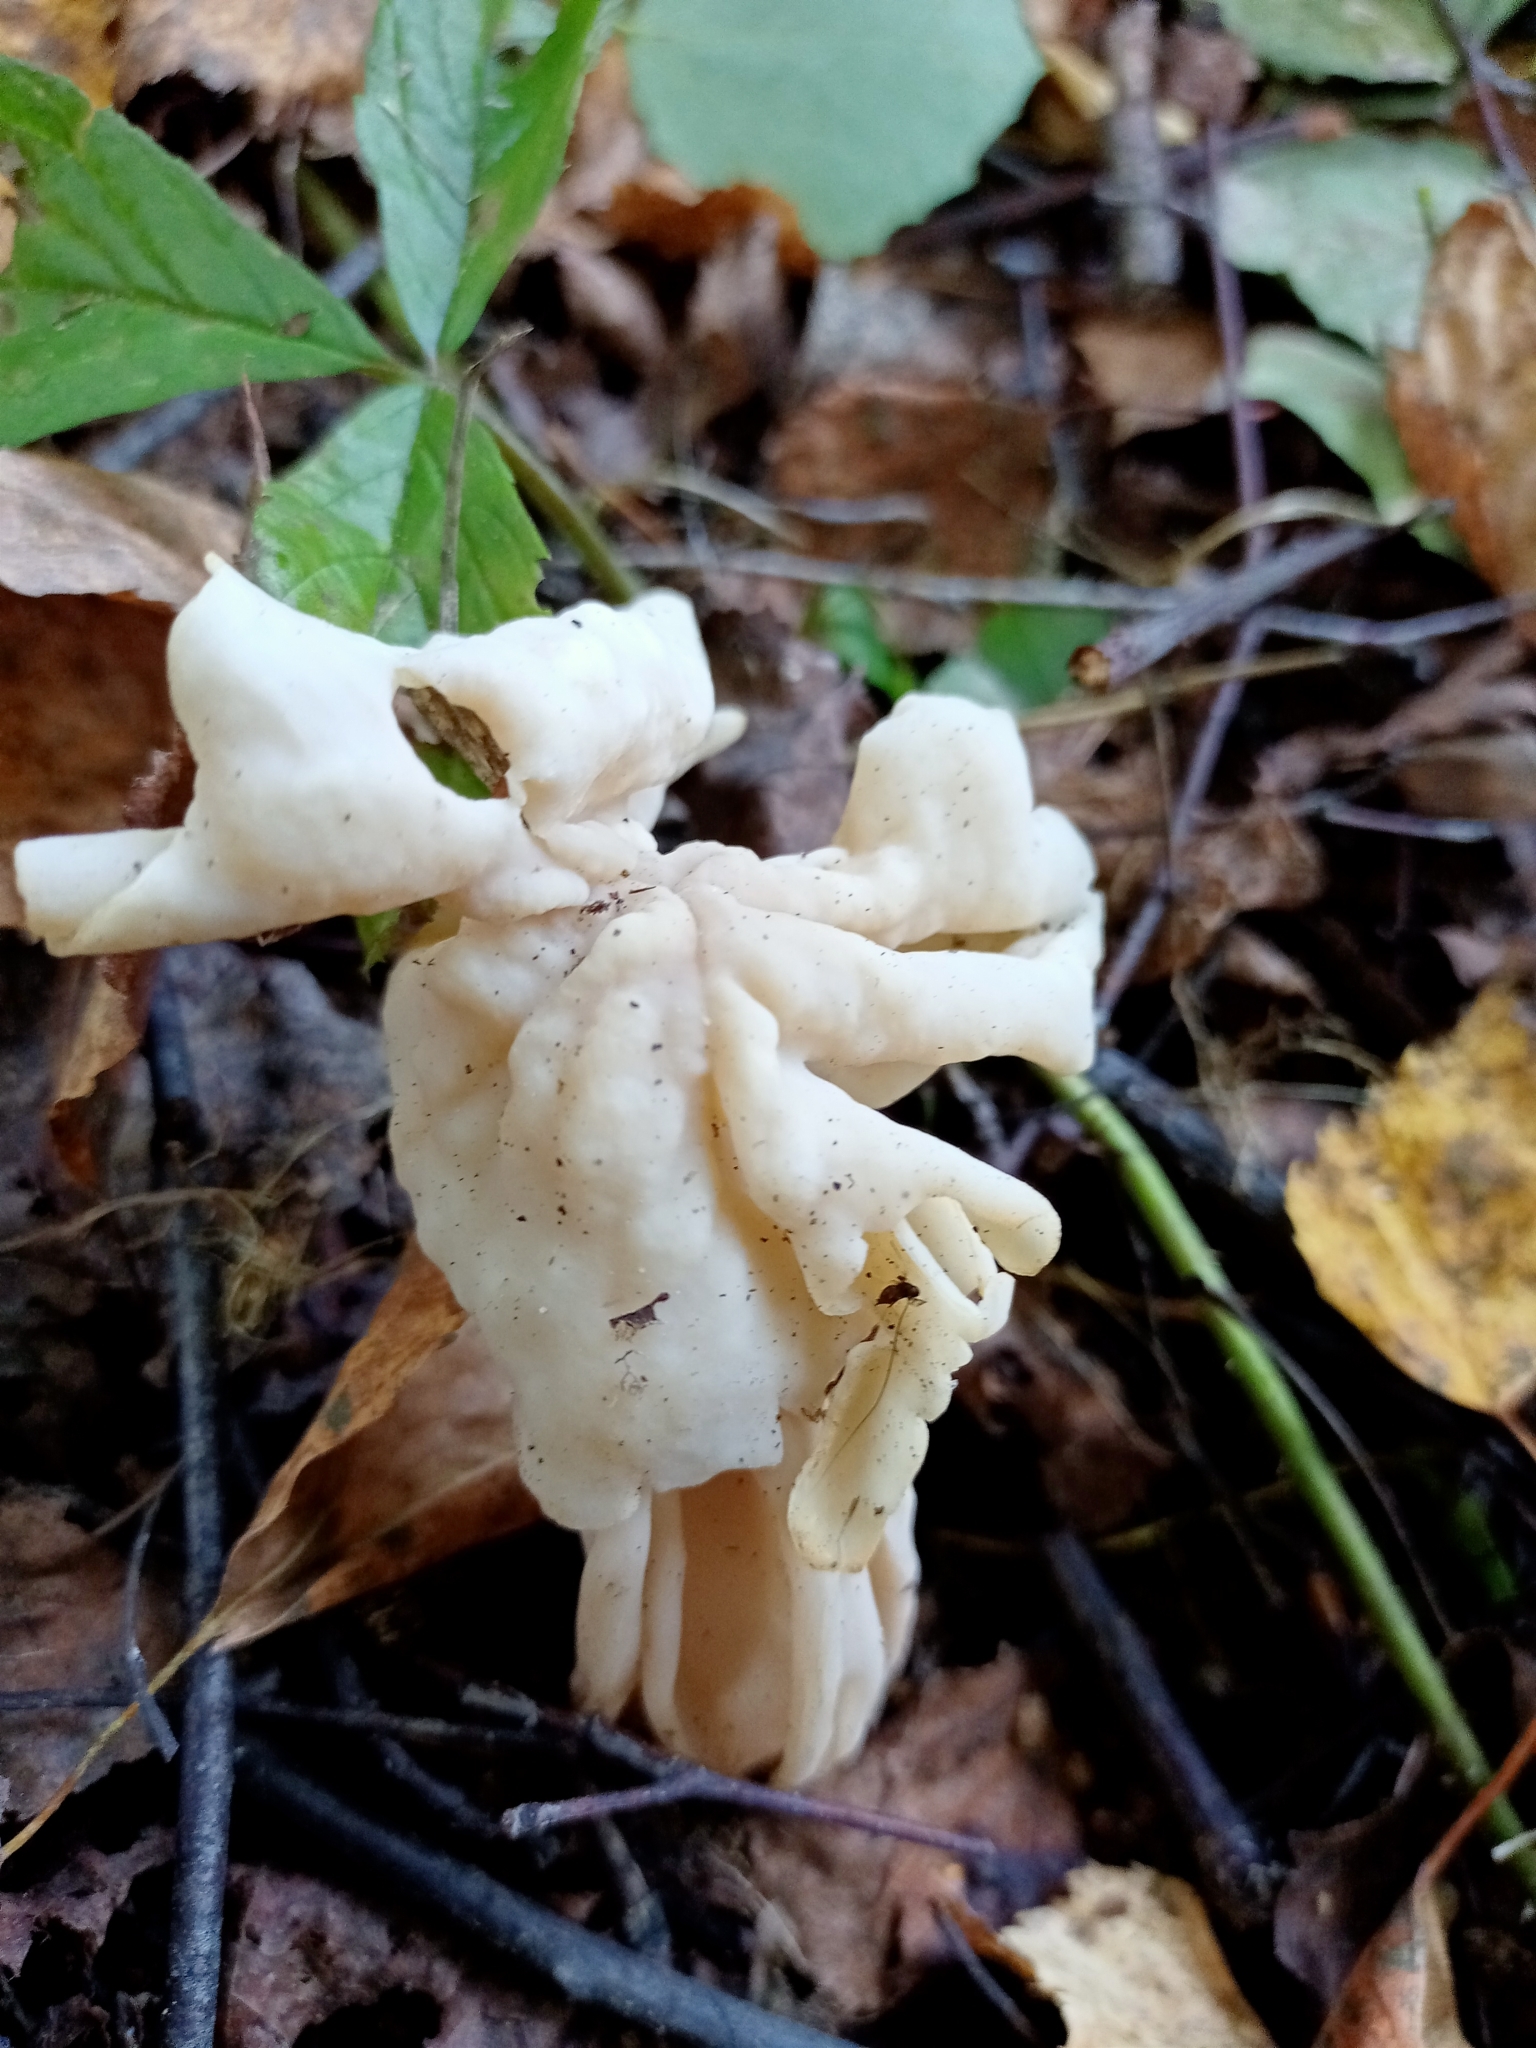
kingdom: Fungi
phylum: Ascomycota
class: Pezizomycetes
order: Pezizales
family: Helvellaceae
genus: Helvella
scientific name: Helvella crispa
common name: White saddle
